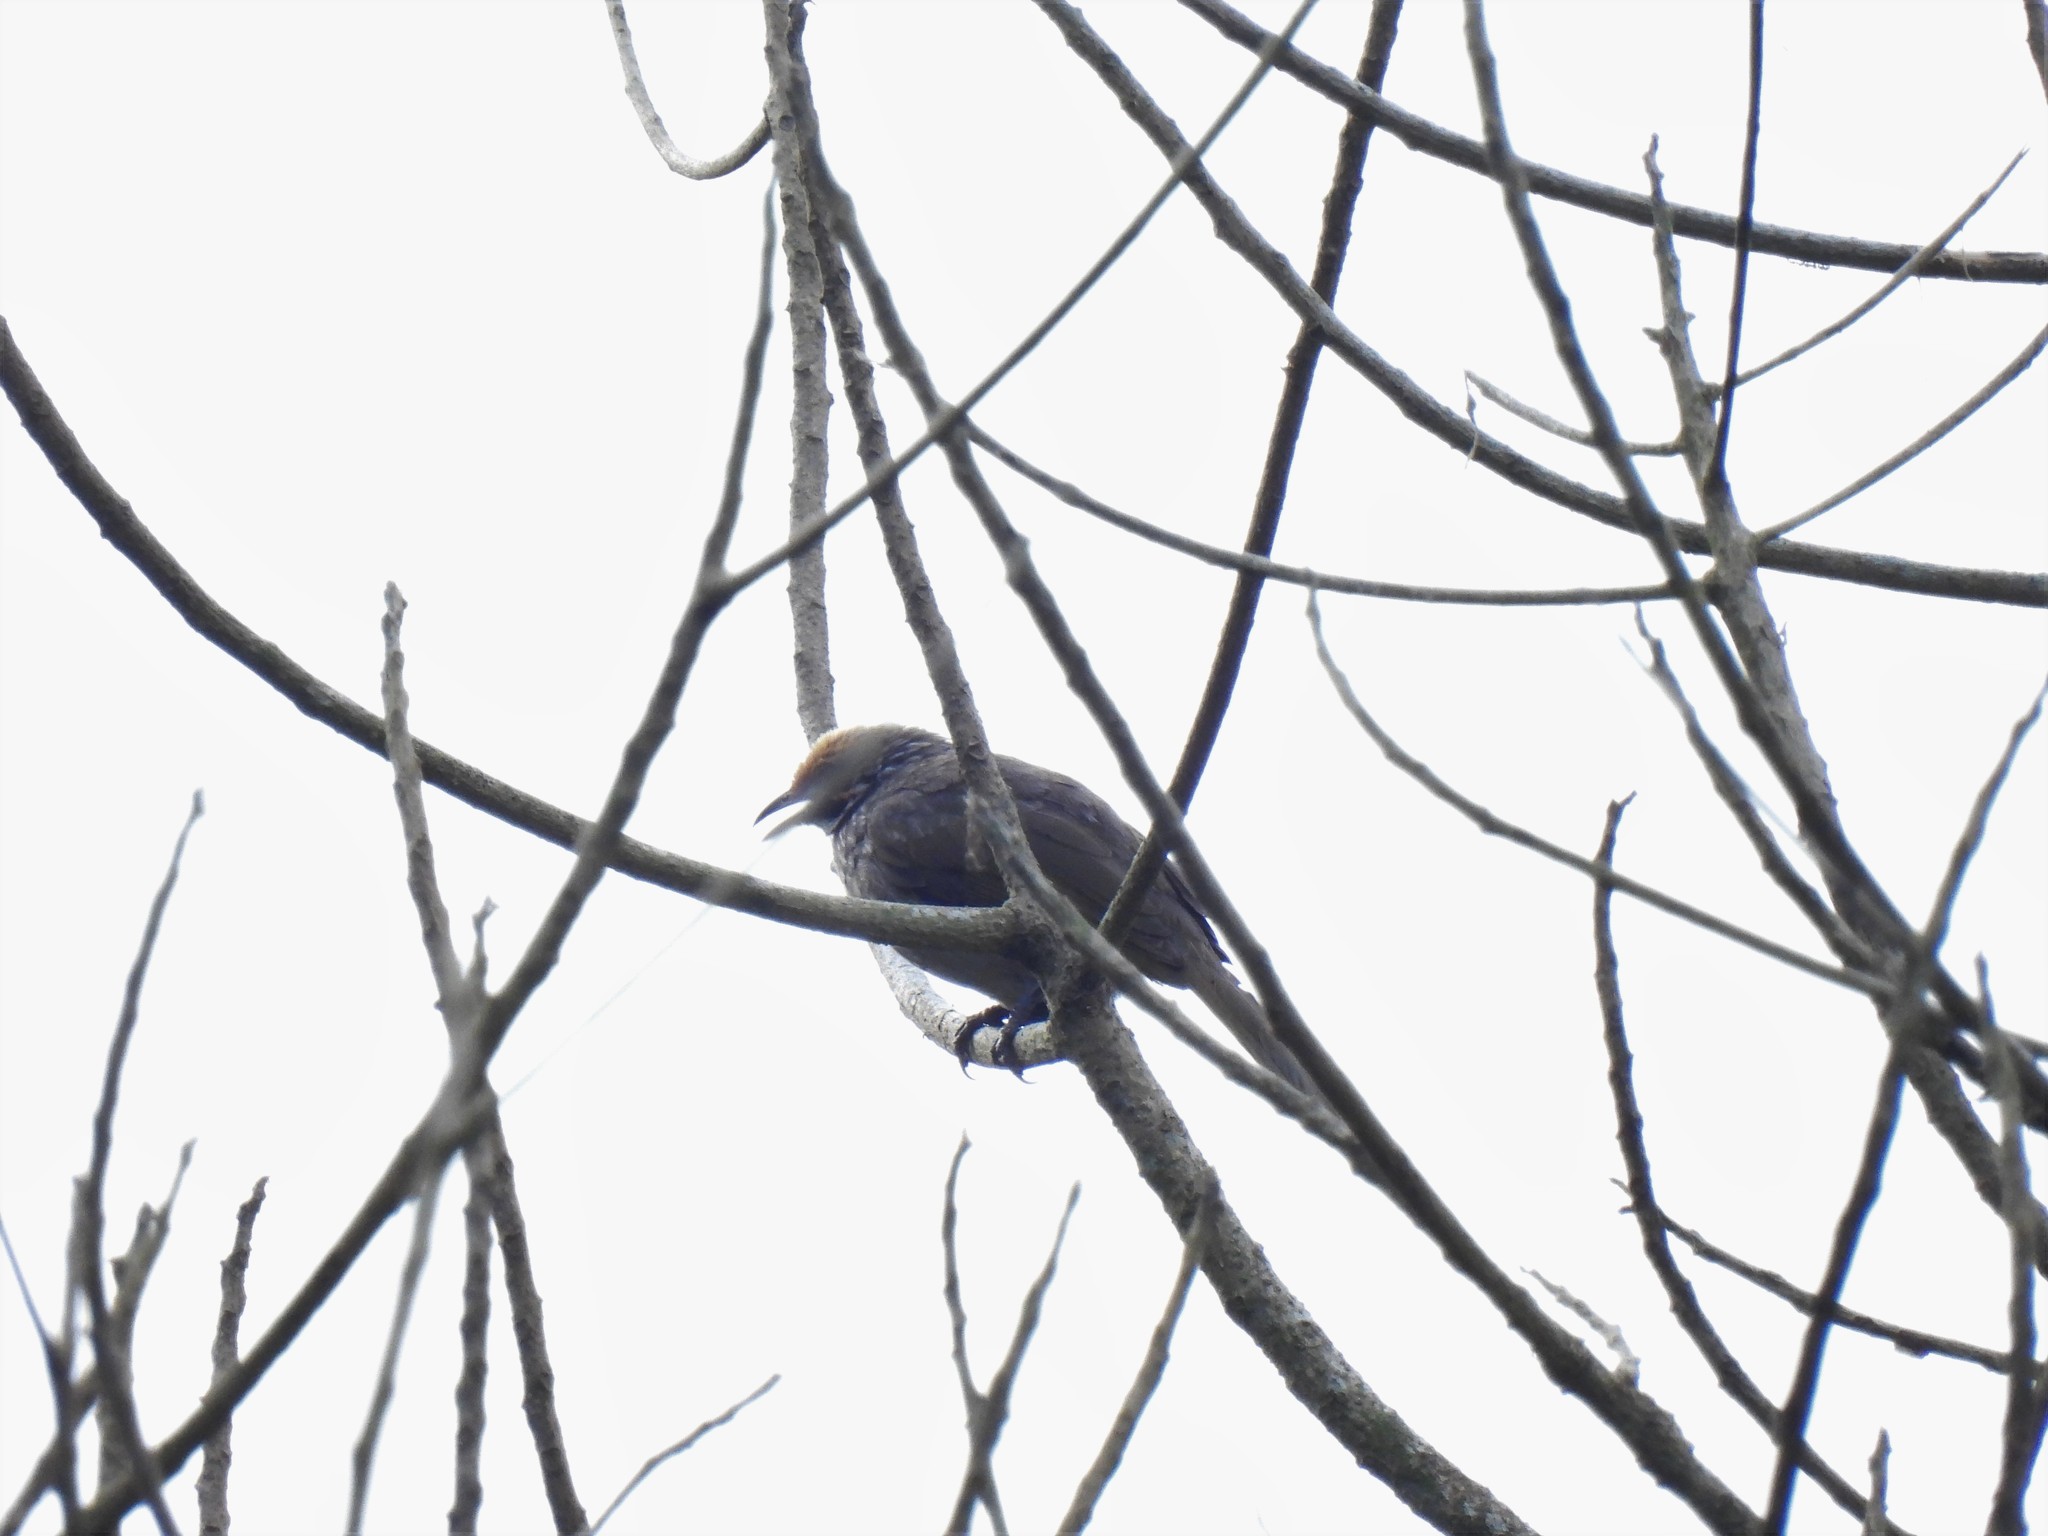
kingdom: Animalia
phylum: Chordata
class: Aves
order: Passeriformes
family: Pycnonotidae
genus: Pycnonotus
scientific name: Pycnonotus zeylanicus
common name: Straw-headed bulbul
